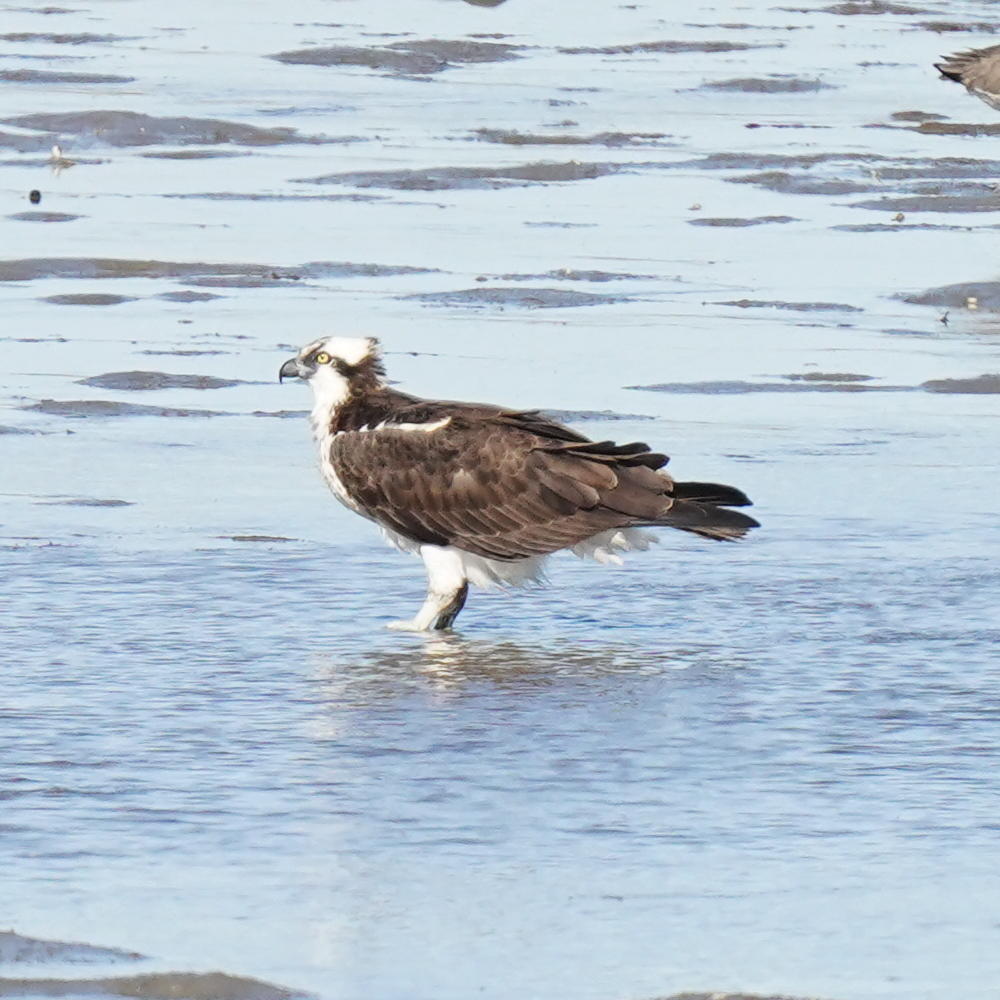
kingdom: Animalia
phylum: Chordata
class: Aves
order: Accipitriformes
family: Pandionidae
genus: Pandion
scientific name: Pandion haliaetus
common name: Osprey
